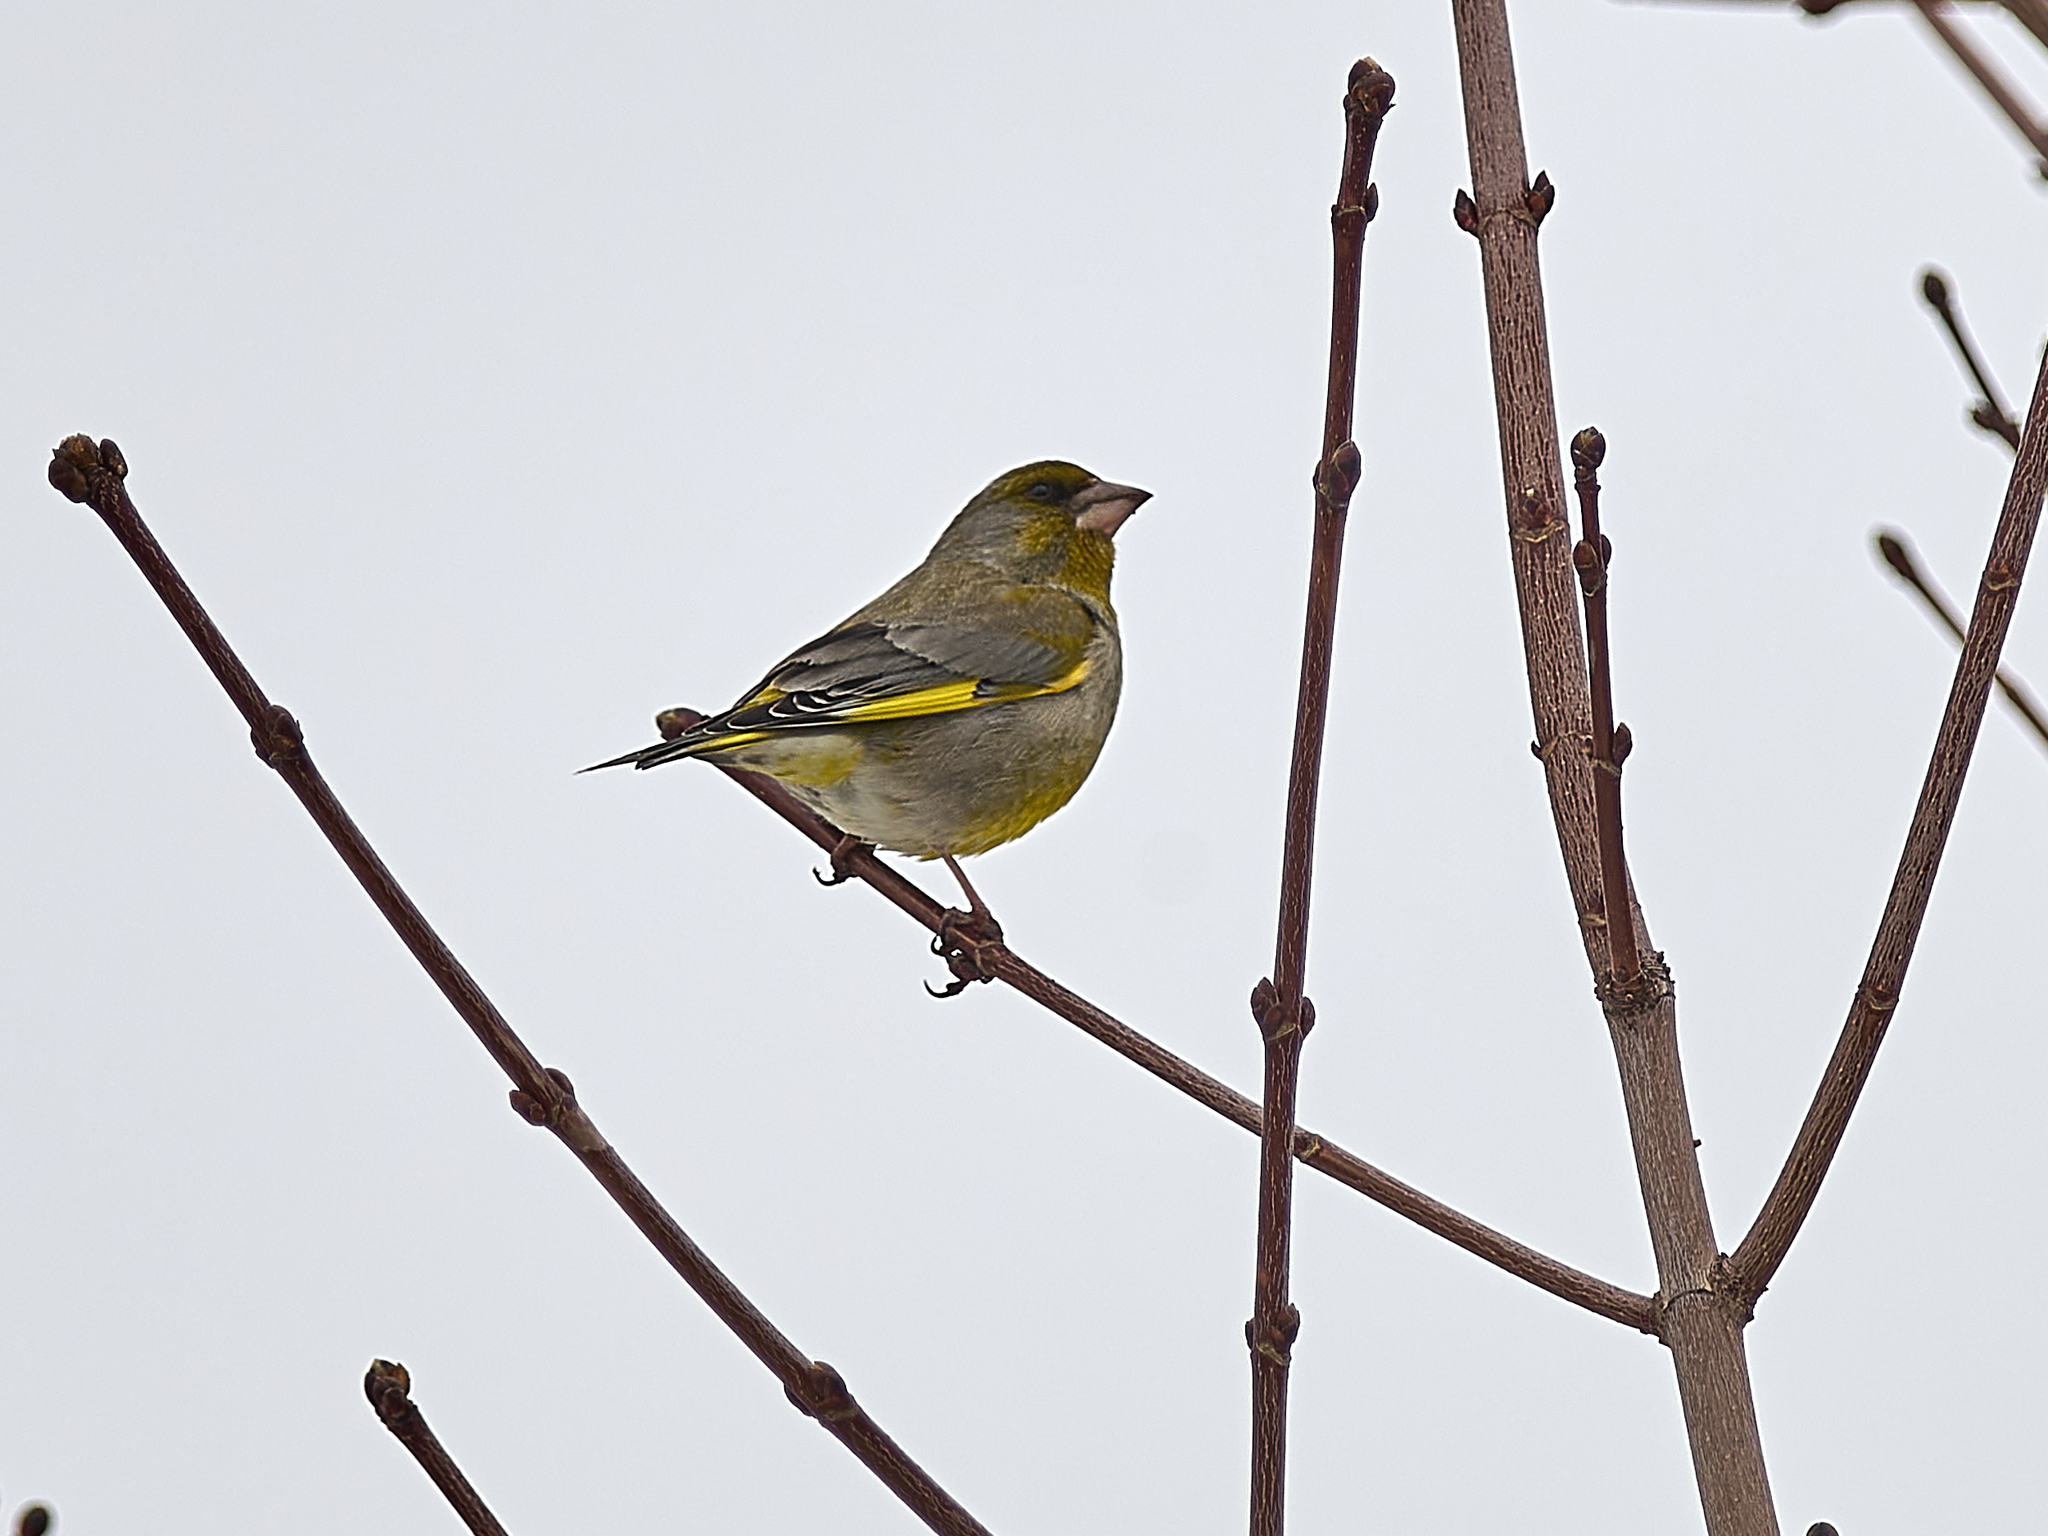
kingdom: Plantae
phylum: Tracheophyta
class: Liliopsida
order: Poales
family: Poaceae
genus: Chloris
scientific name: Chloris chloris
